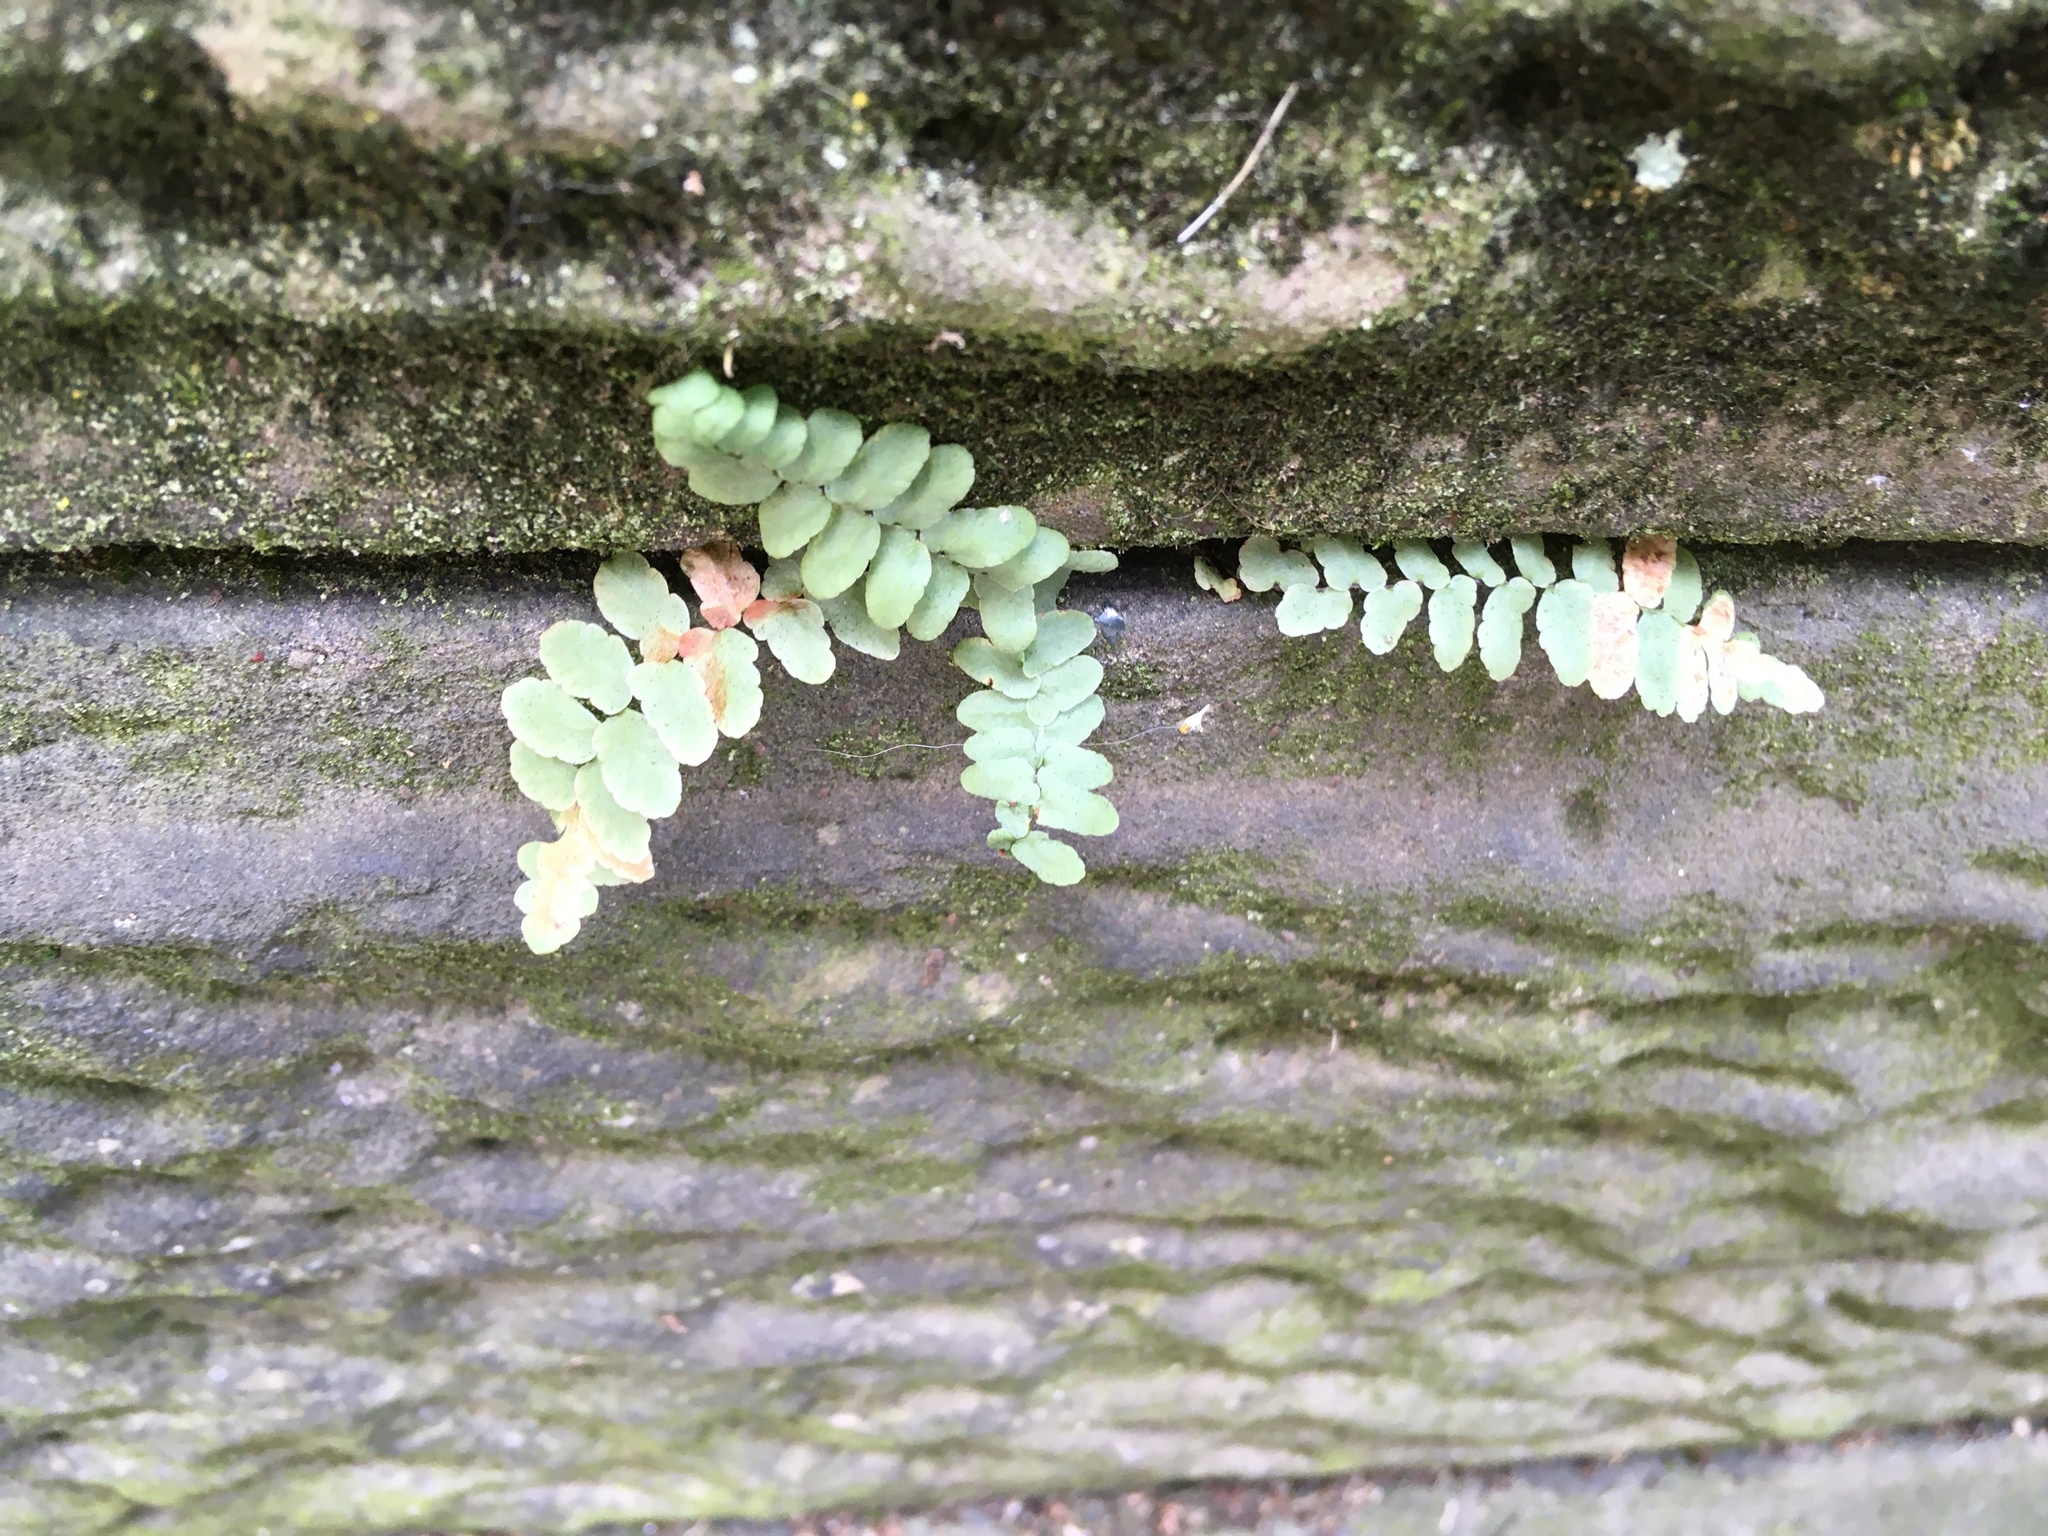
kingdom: Plantae
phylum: Tracheophyta
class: Polypodiopsida
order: Polypodiales
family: Aspleniaceae
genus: Asplenium
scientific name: Asplenium platyneuron
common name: Ebony spleenwort
